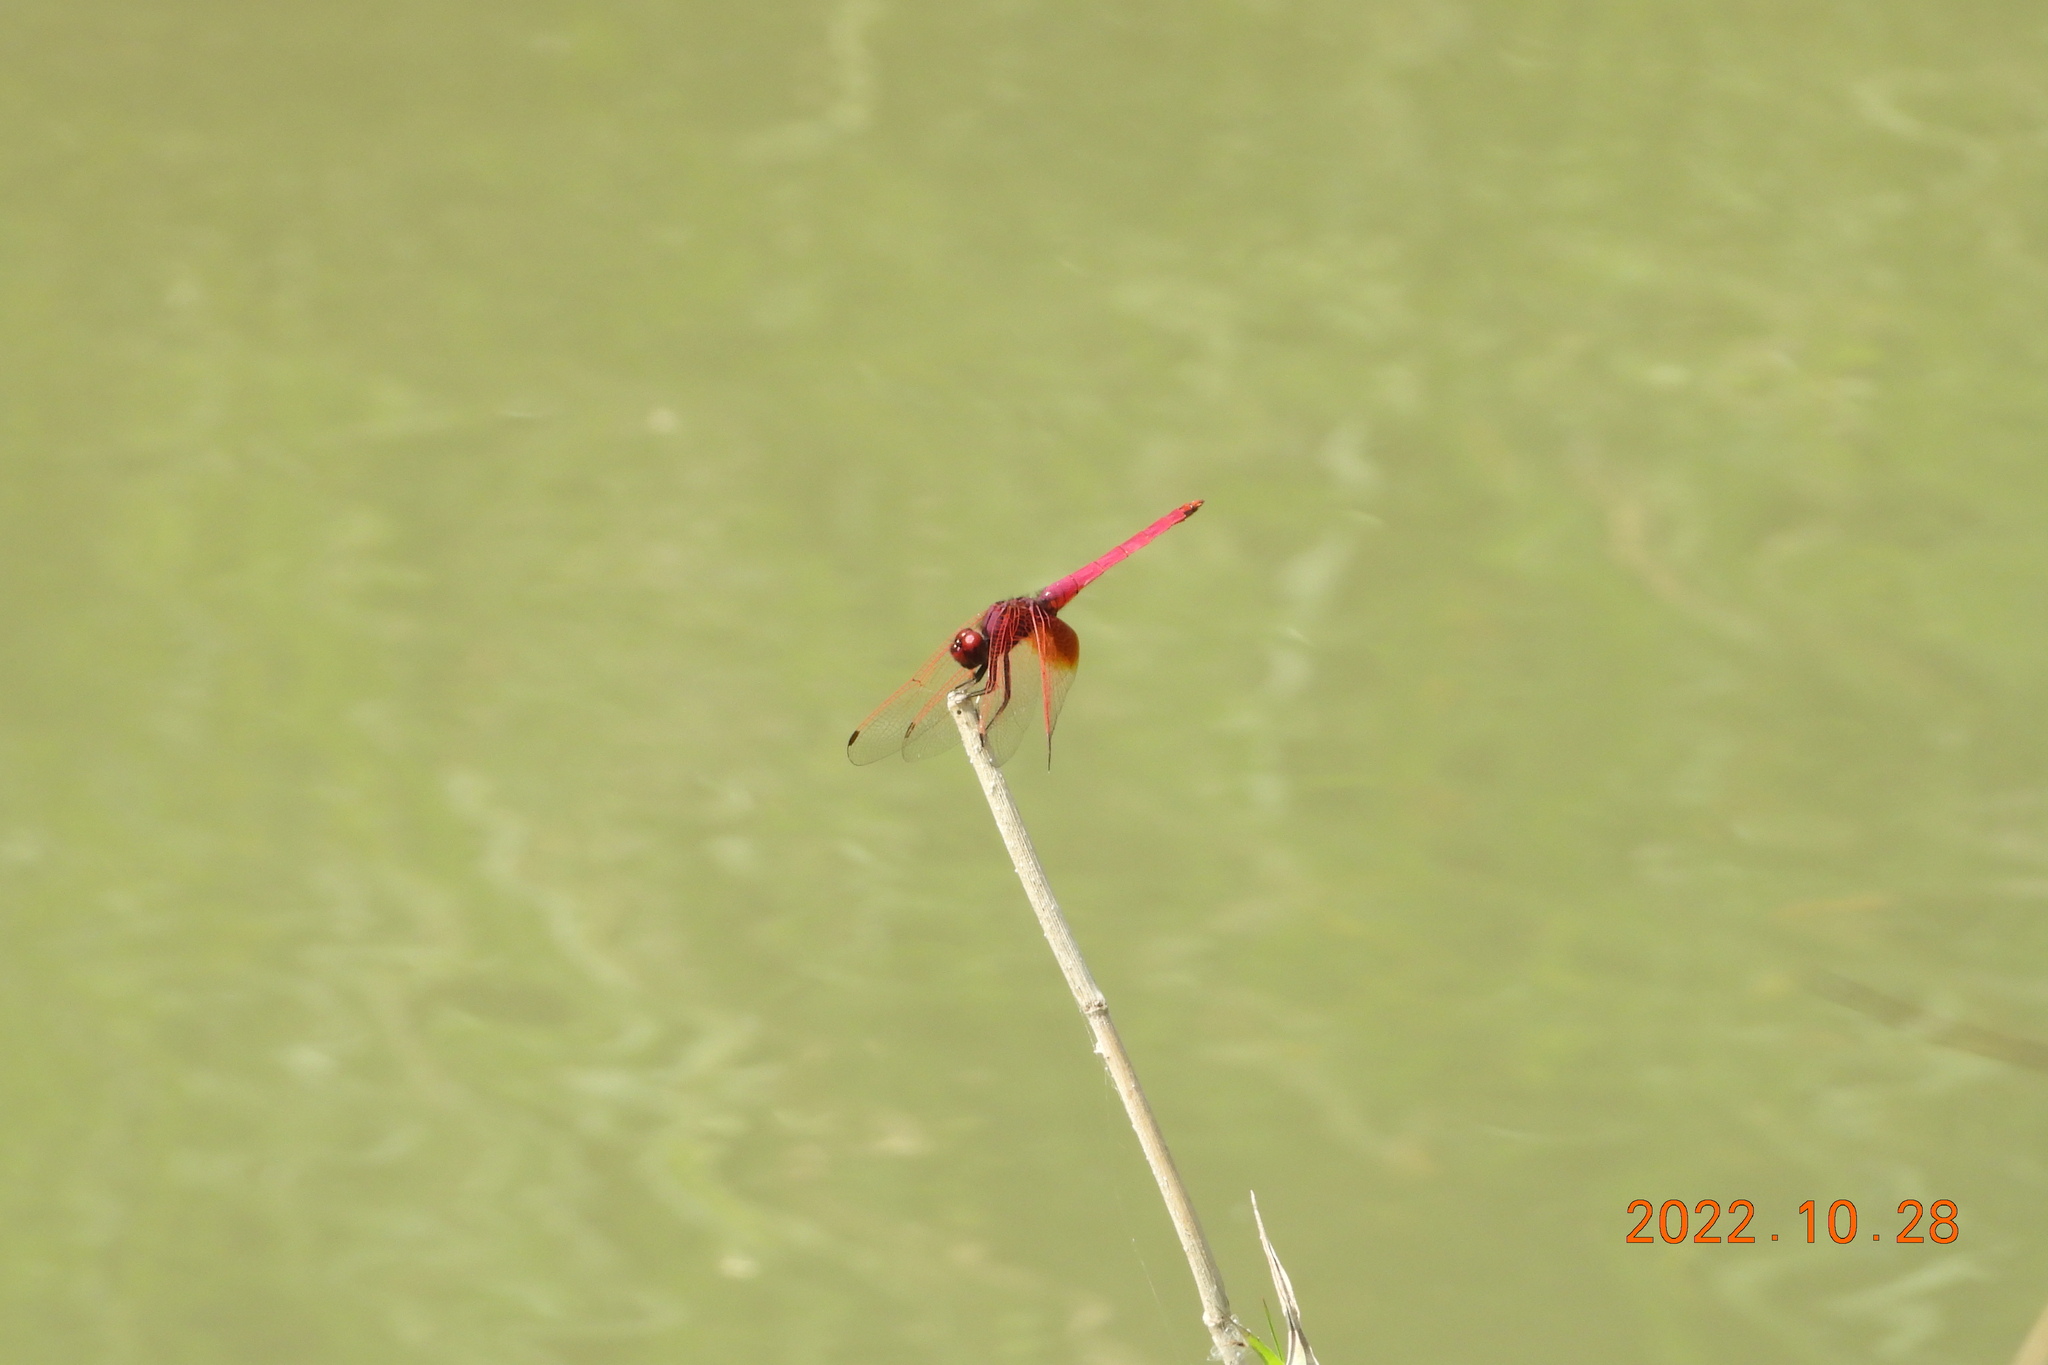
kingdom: Animalia
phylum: Arthropoda
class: Insecta
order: Odonata
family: Libellulidae
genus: Trithemis
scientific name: Trithemis aurora
